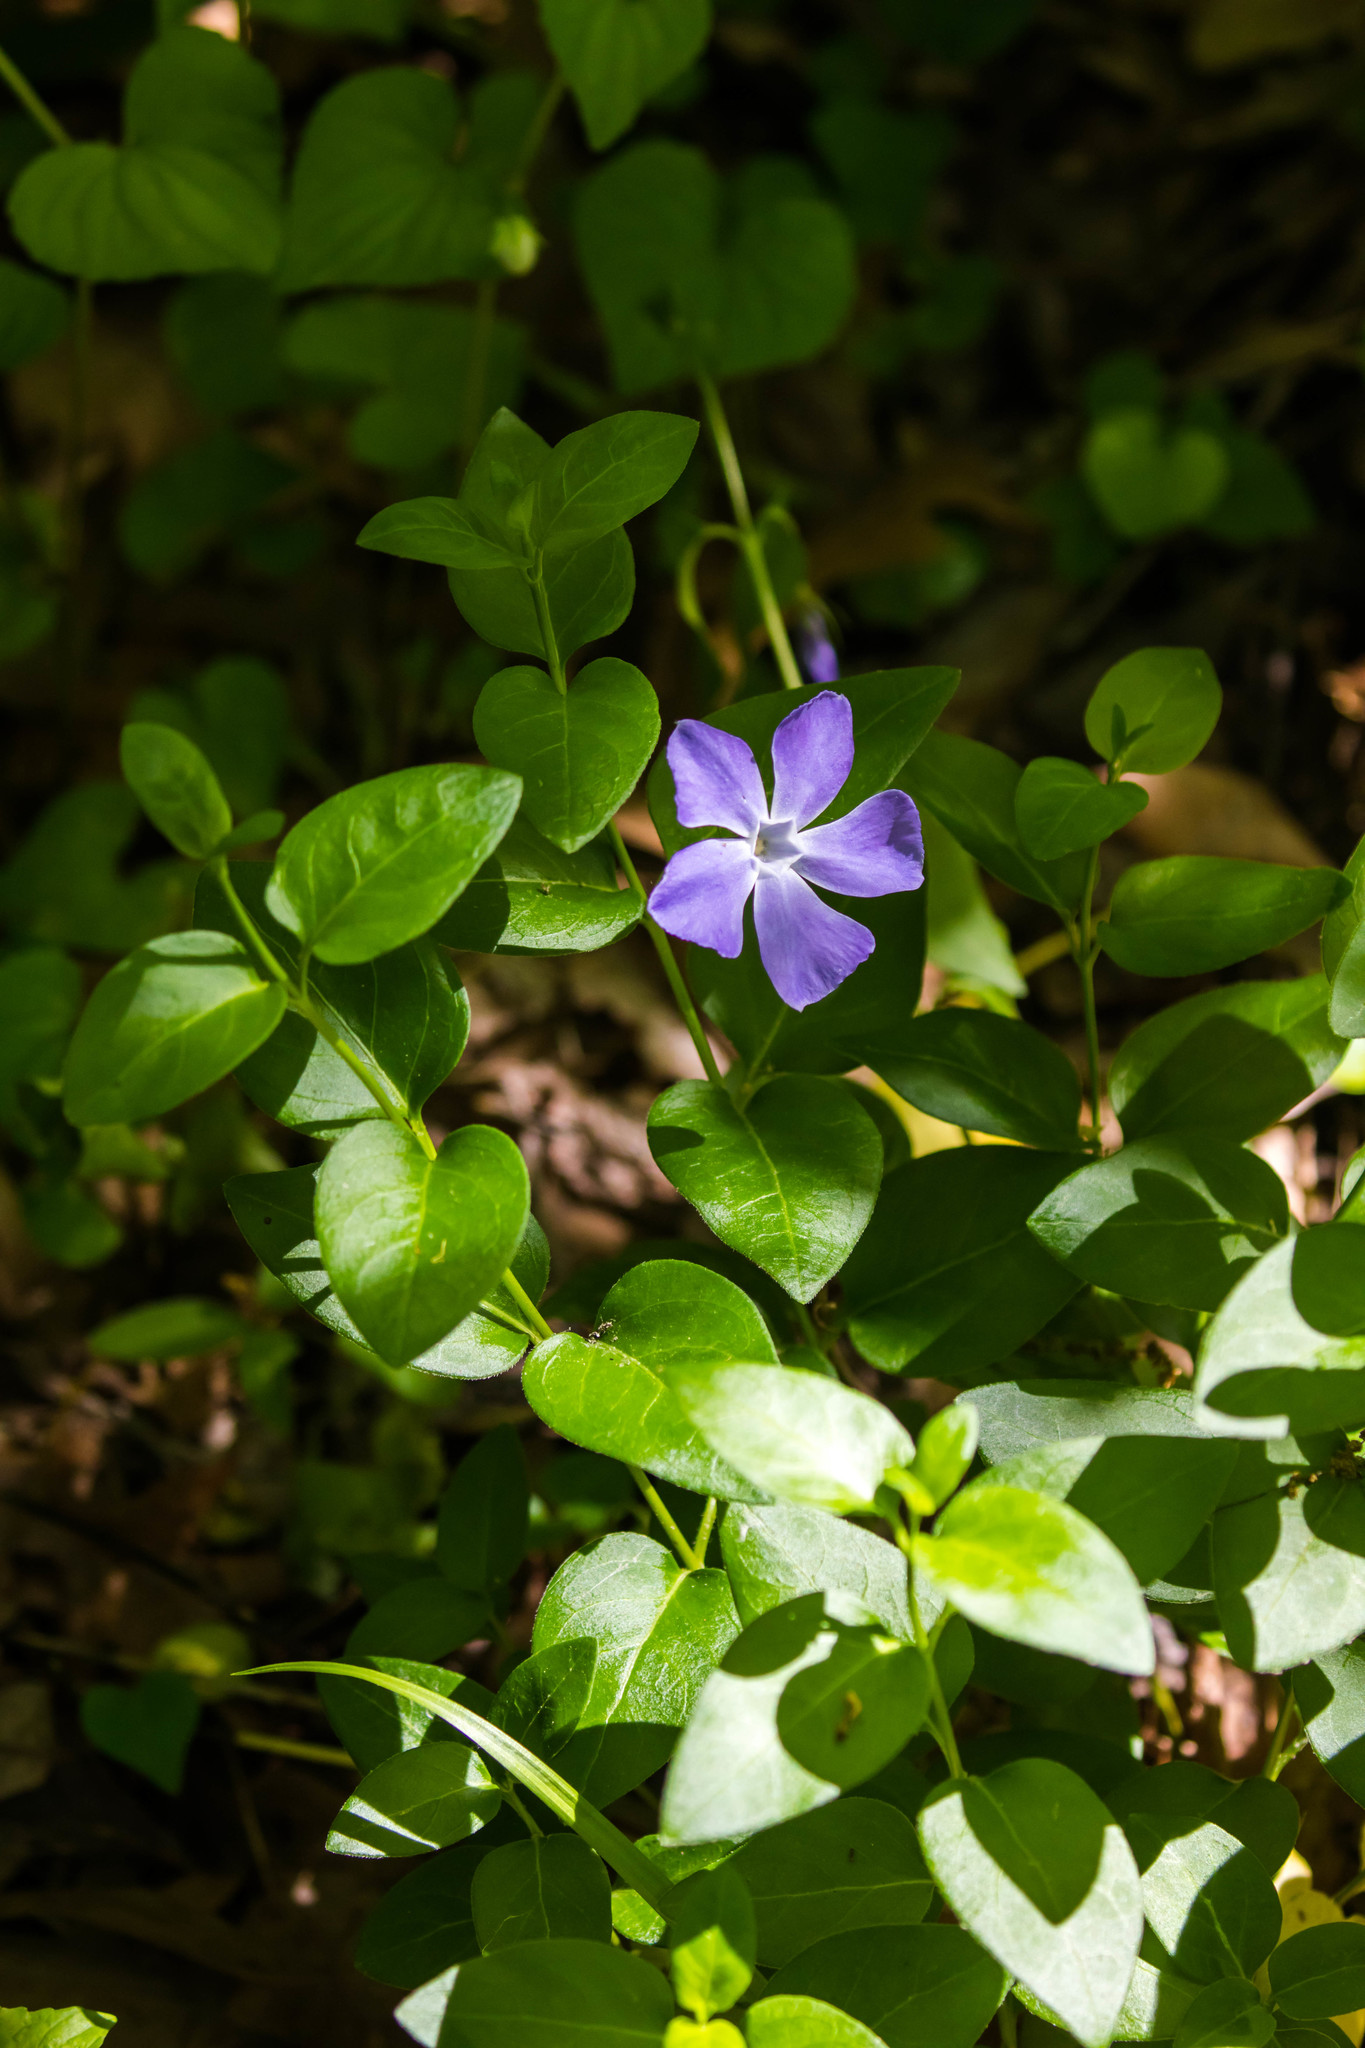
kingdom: Plantae
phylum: Tracheophyta
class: Magnoliopsida
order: Gentianales
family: Apocynaceae
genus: Vinca
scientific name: Vinca major
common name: Greater periwinkle
